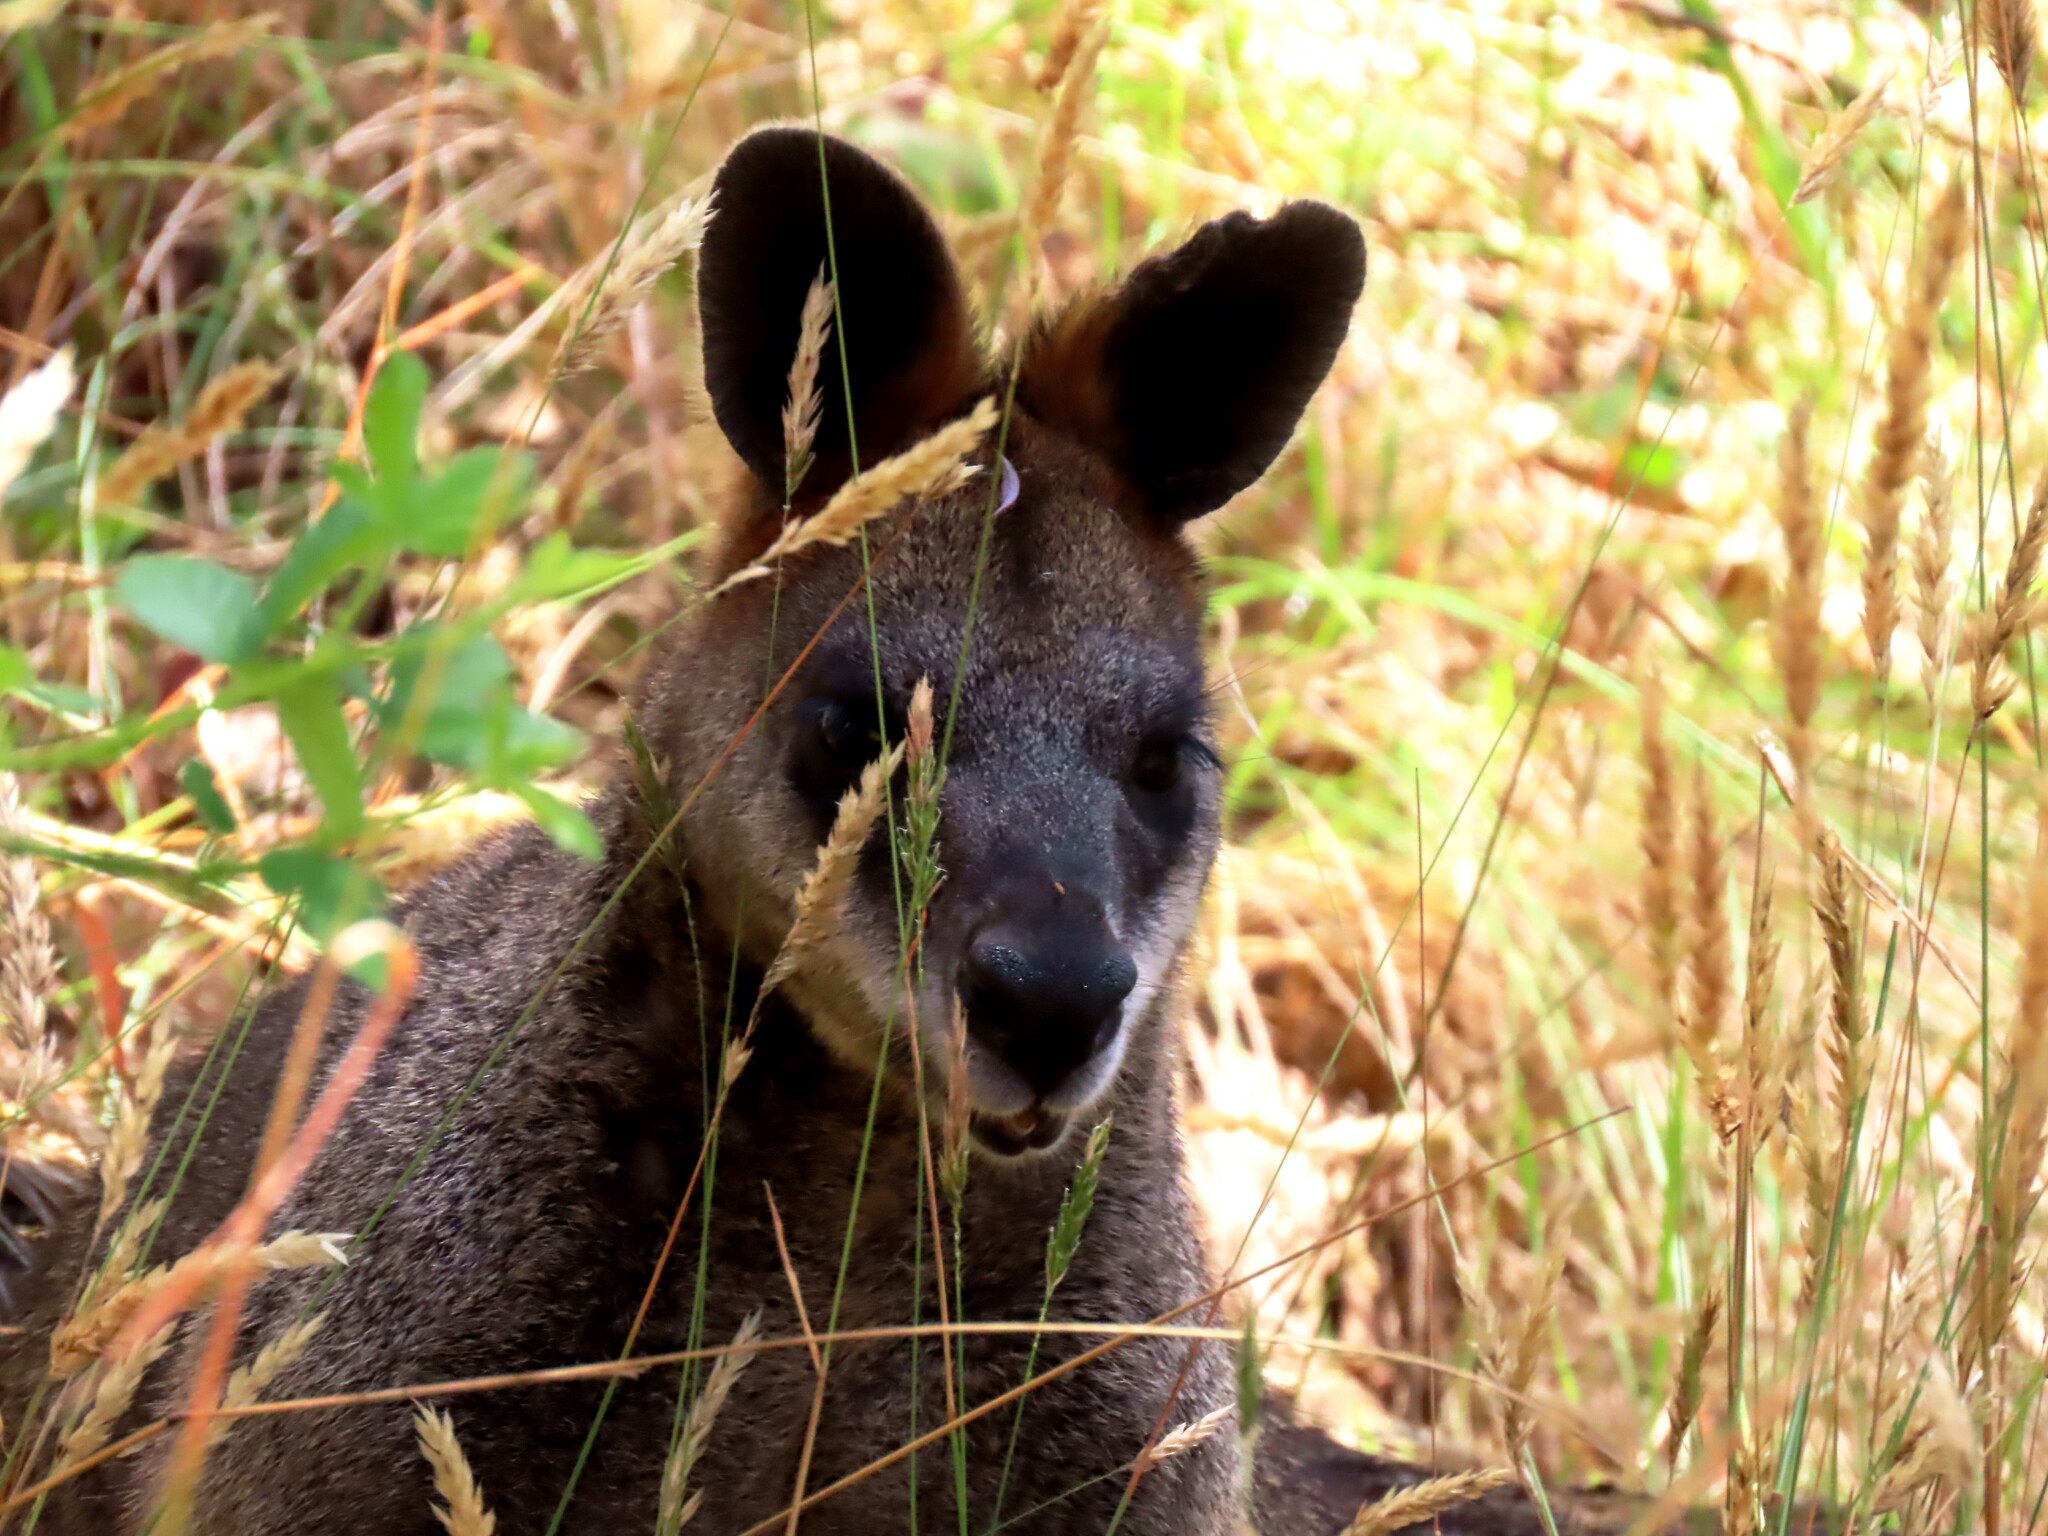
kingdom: Animalia
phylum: Chordata
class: Mammalia
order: Diprotodontia
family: Macropodidae
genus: Wallabia
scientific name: Wallabia bicolor
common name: Swamp wallaby
